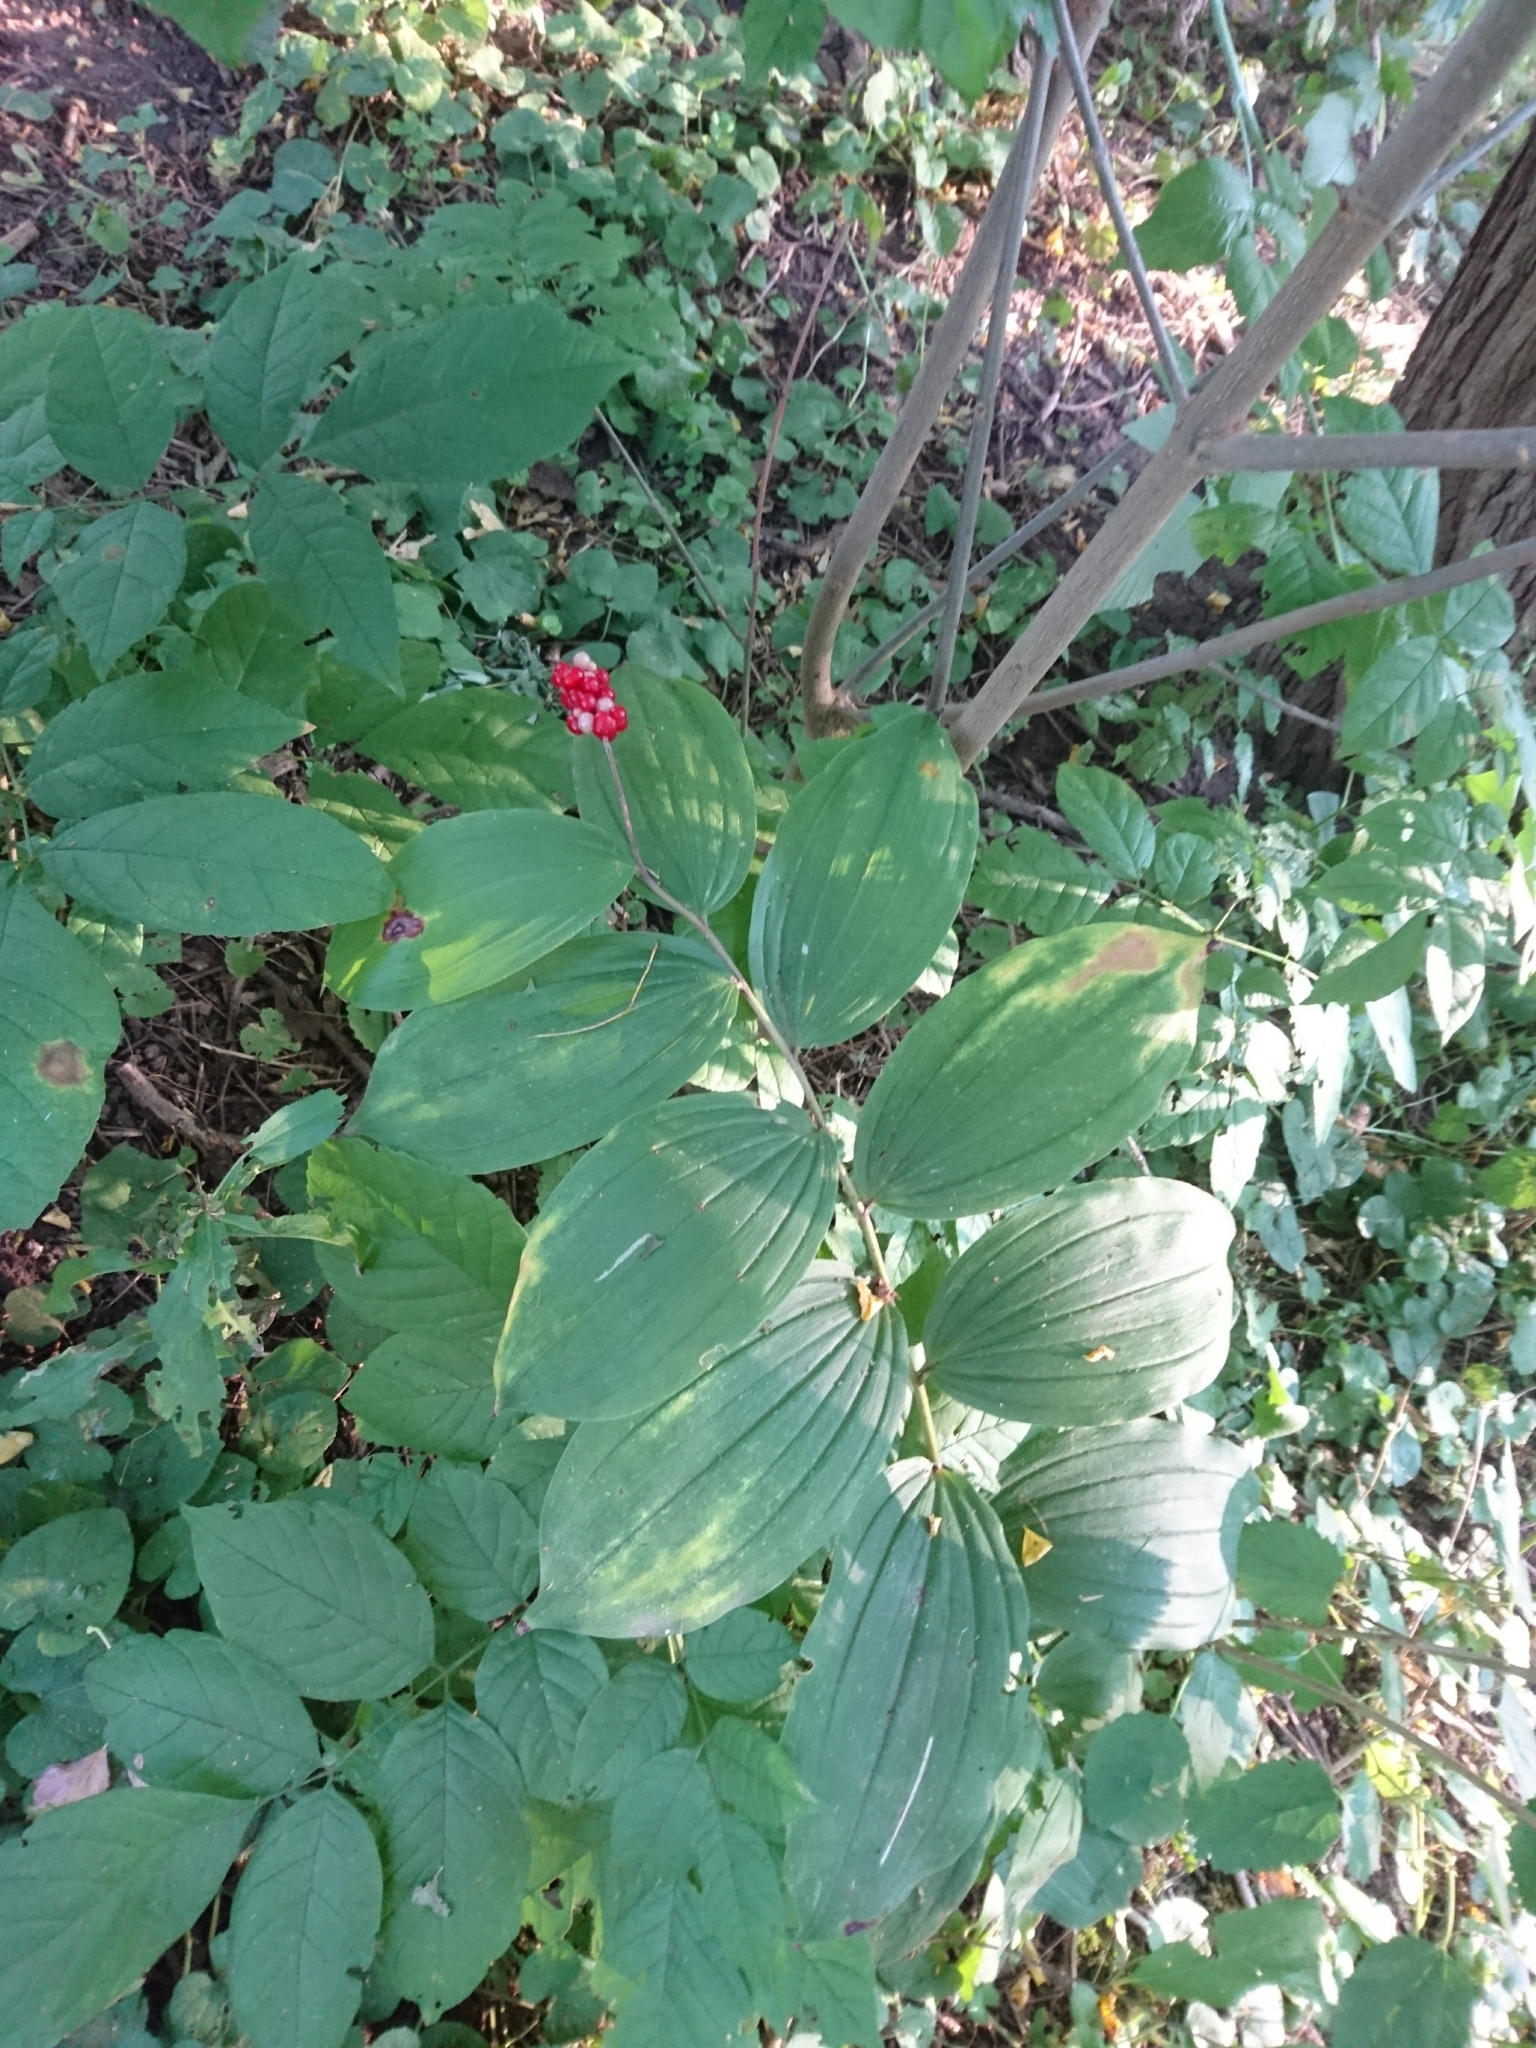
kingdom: Plantae
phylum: Tracheophyta
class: Liliopsida
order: Asparagales
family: Asparagaceae
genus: Maianthemum
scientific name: Maianthemum racemosum
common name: False spikenard
